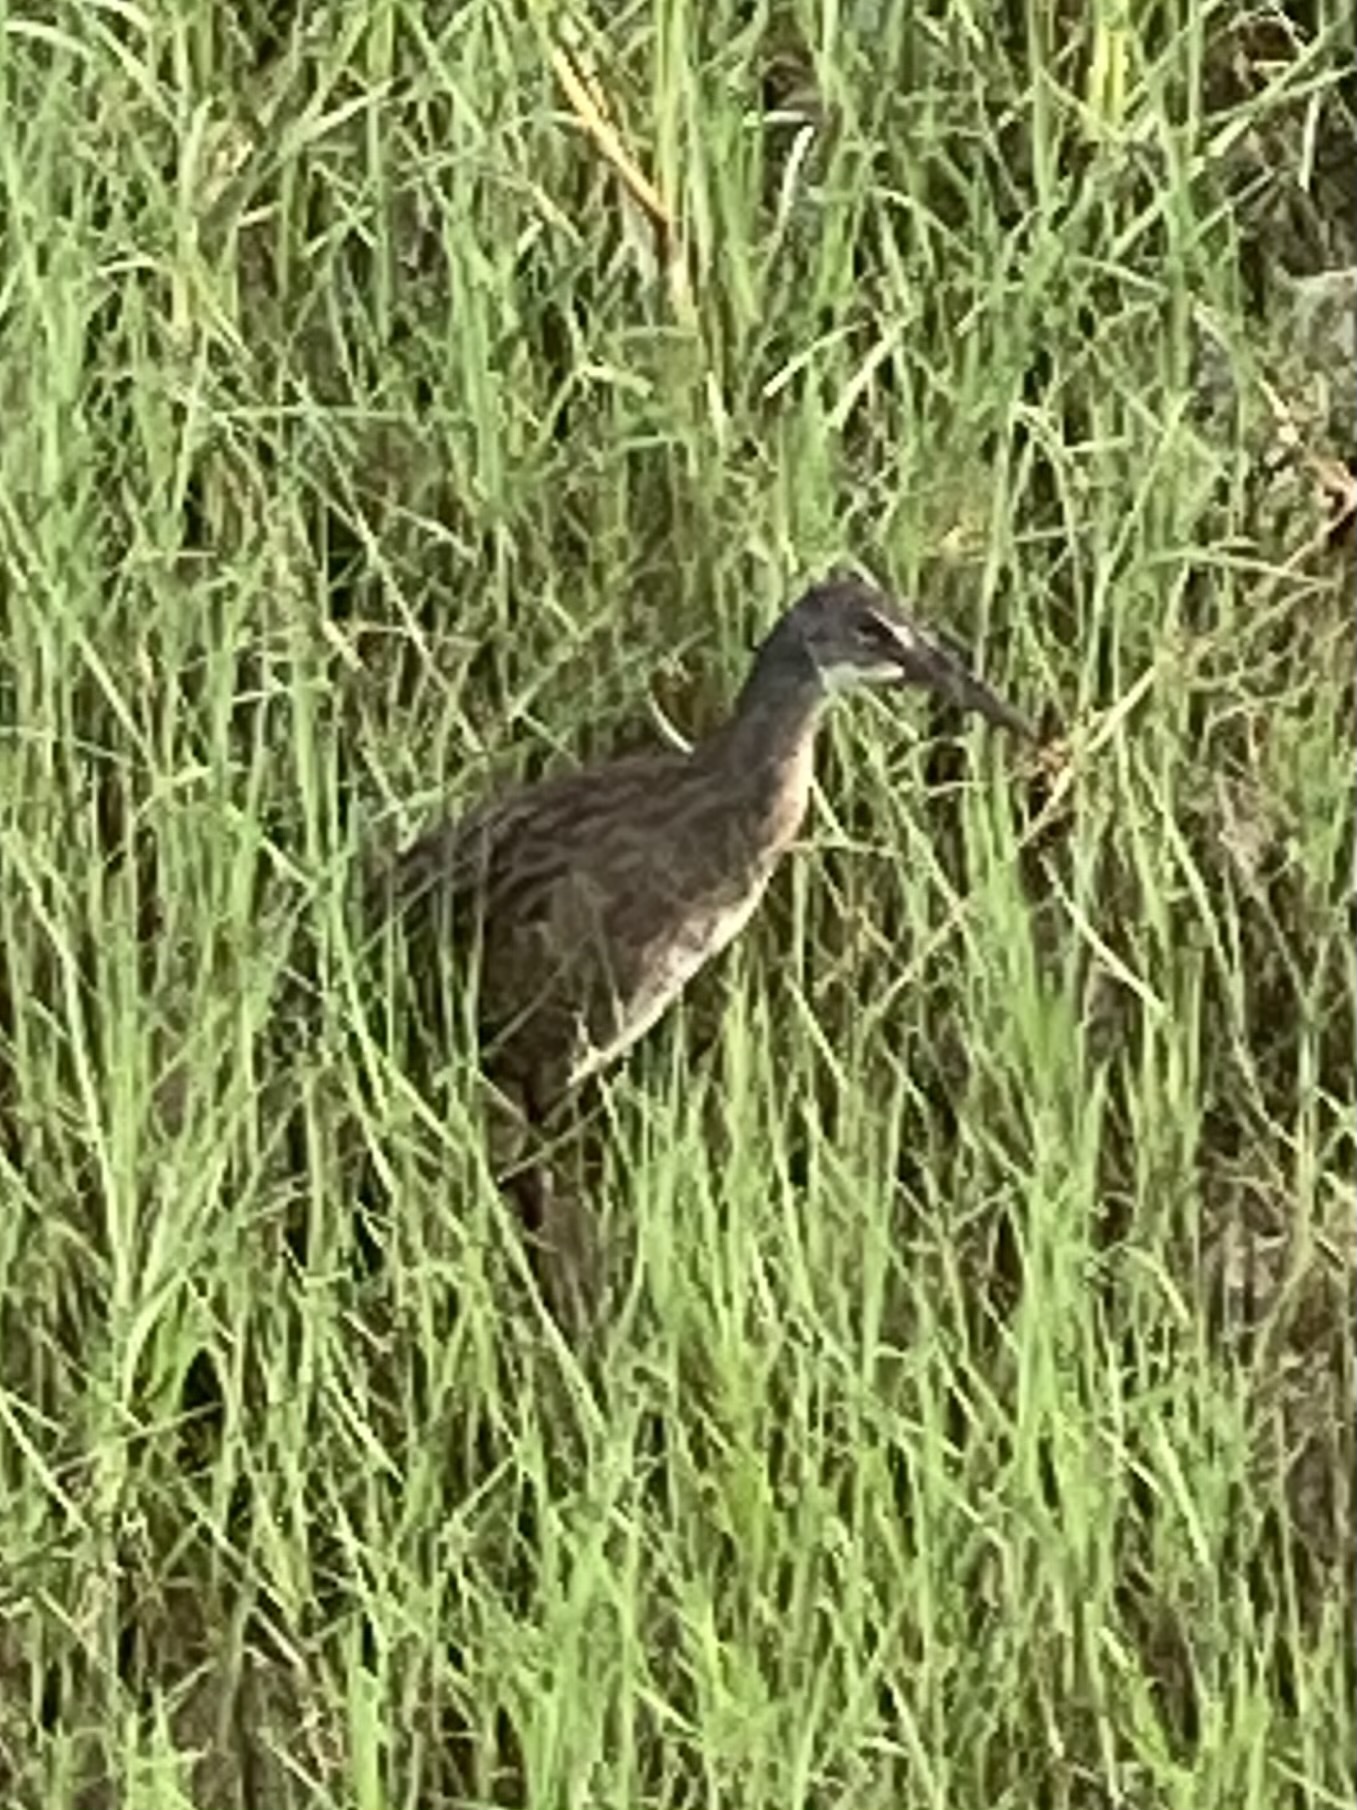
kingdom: Animalia
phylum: Chordata
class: Aves
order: Gruiformes
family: Rallidae
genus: Rallus
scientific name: Rallus crepitans
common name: Clapper rail
